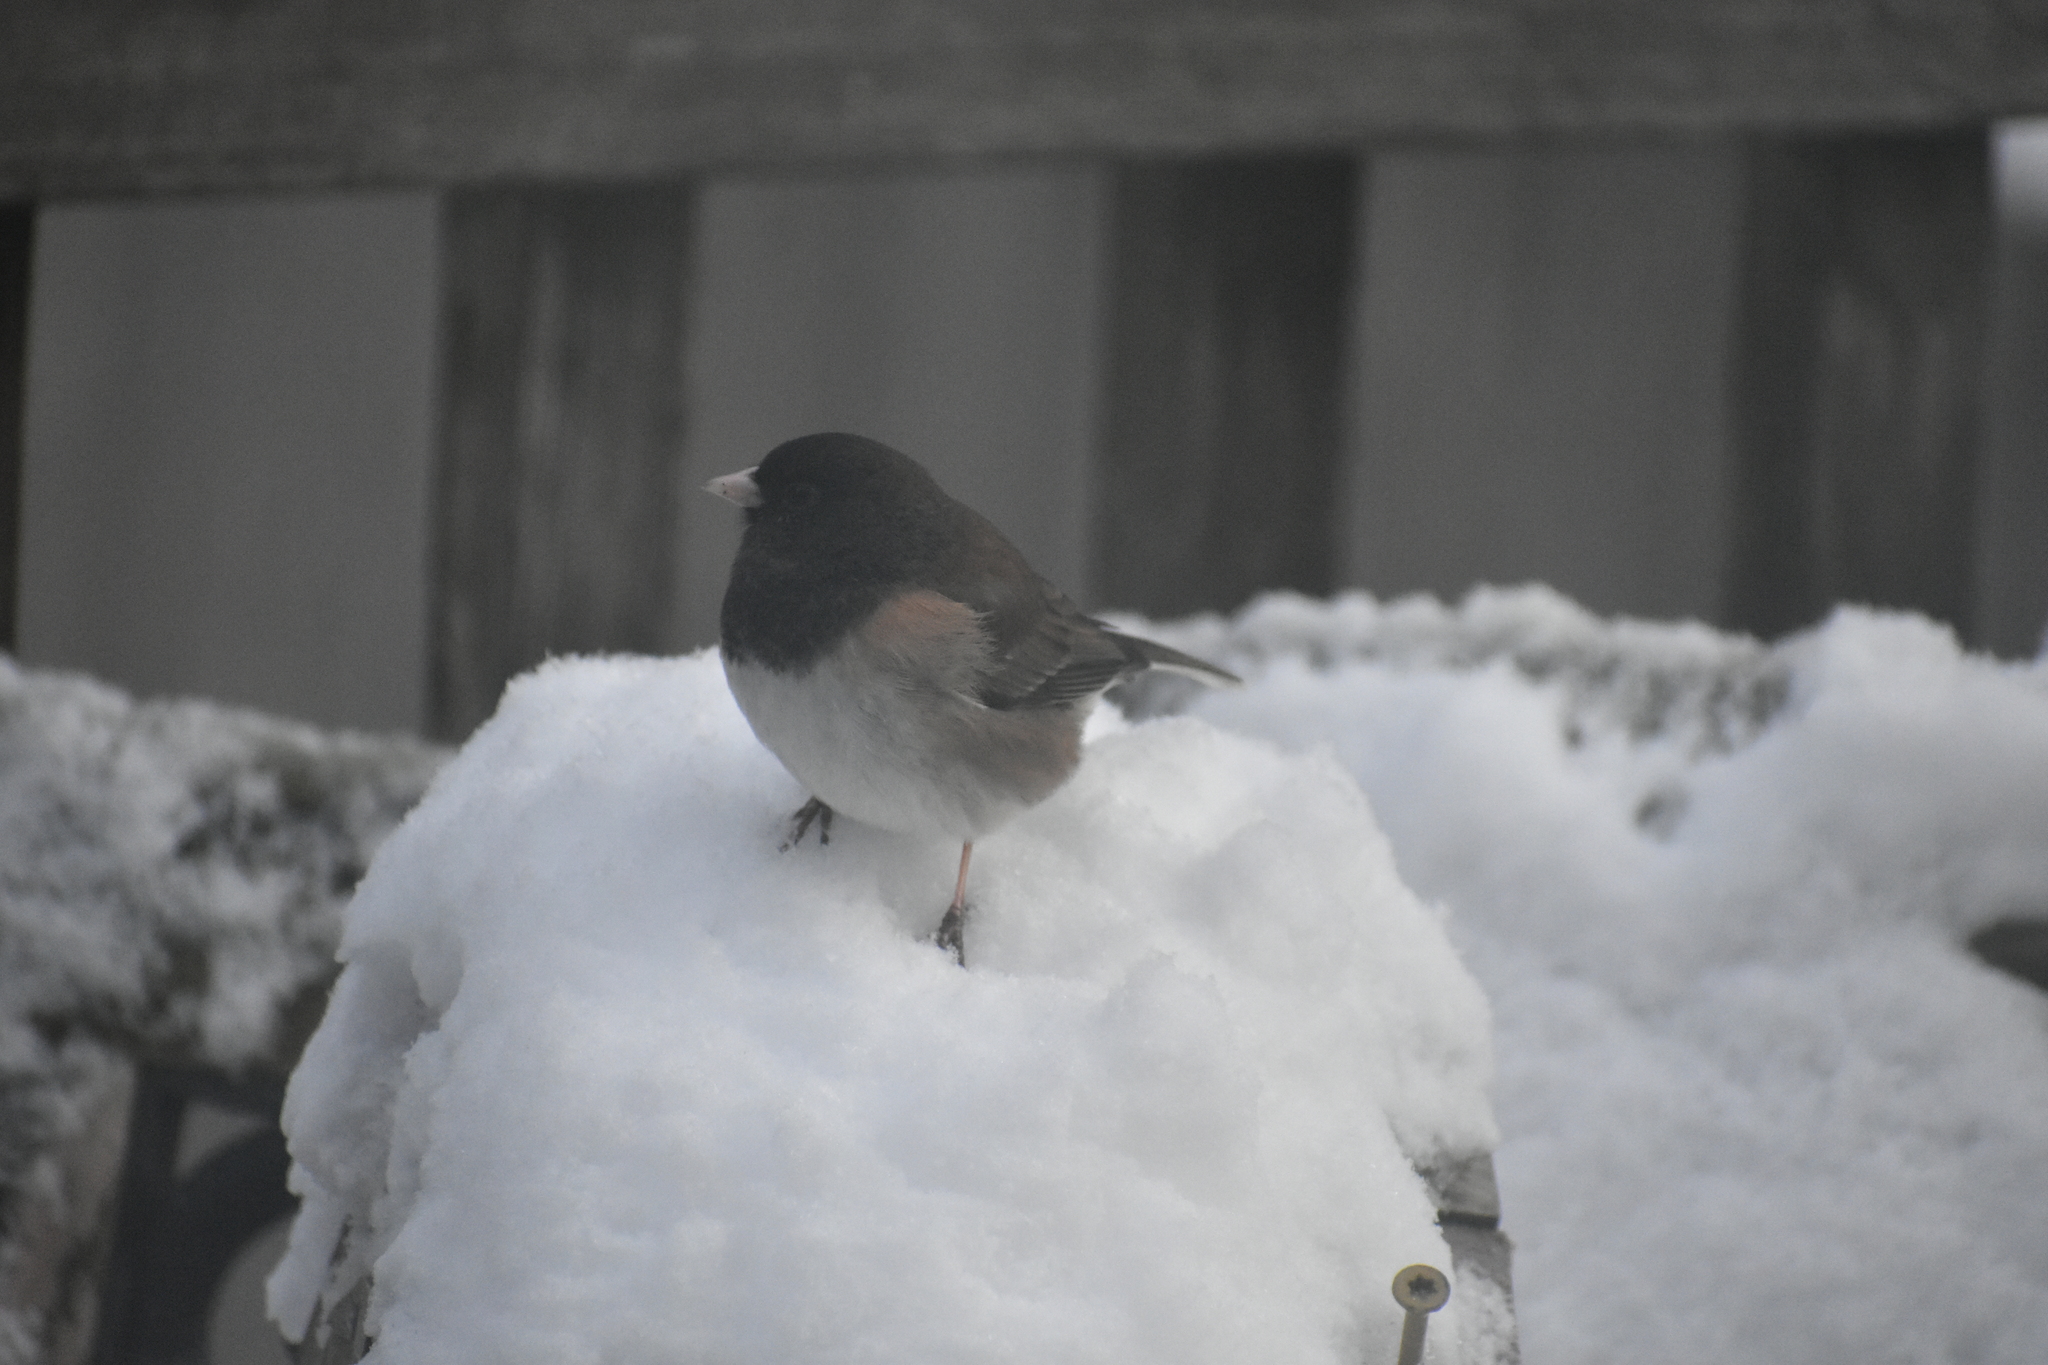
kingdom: Animalia
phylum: Chordata
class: Aves
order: Passeriformes
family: Passerellidae
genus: Junco
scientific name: Junco hyemalis
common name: Dark-eyed junco
